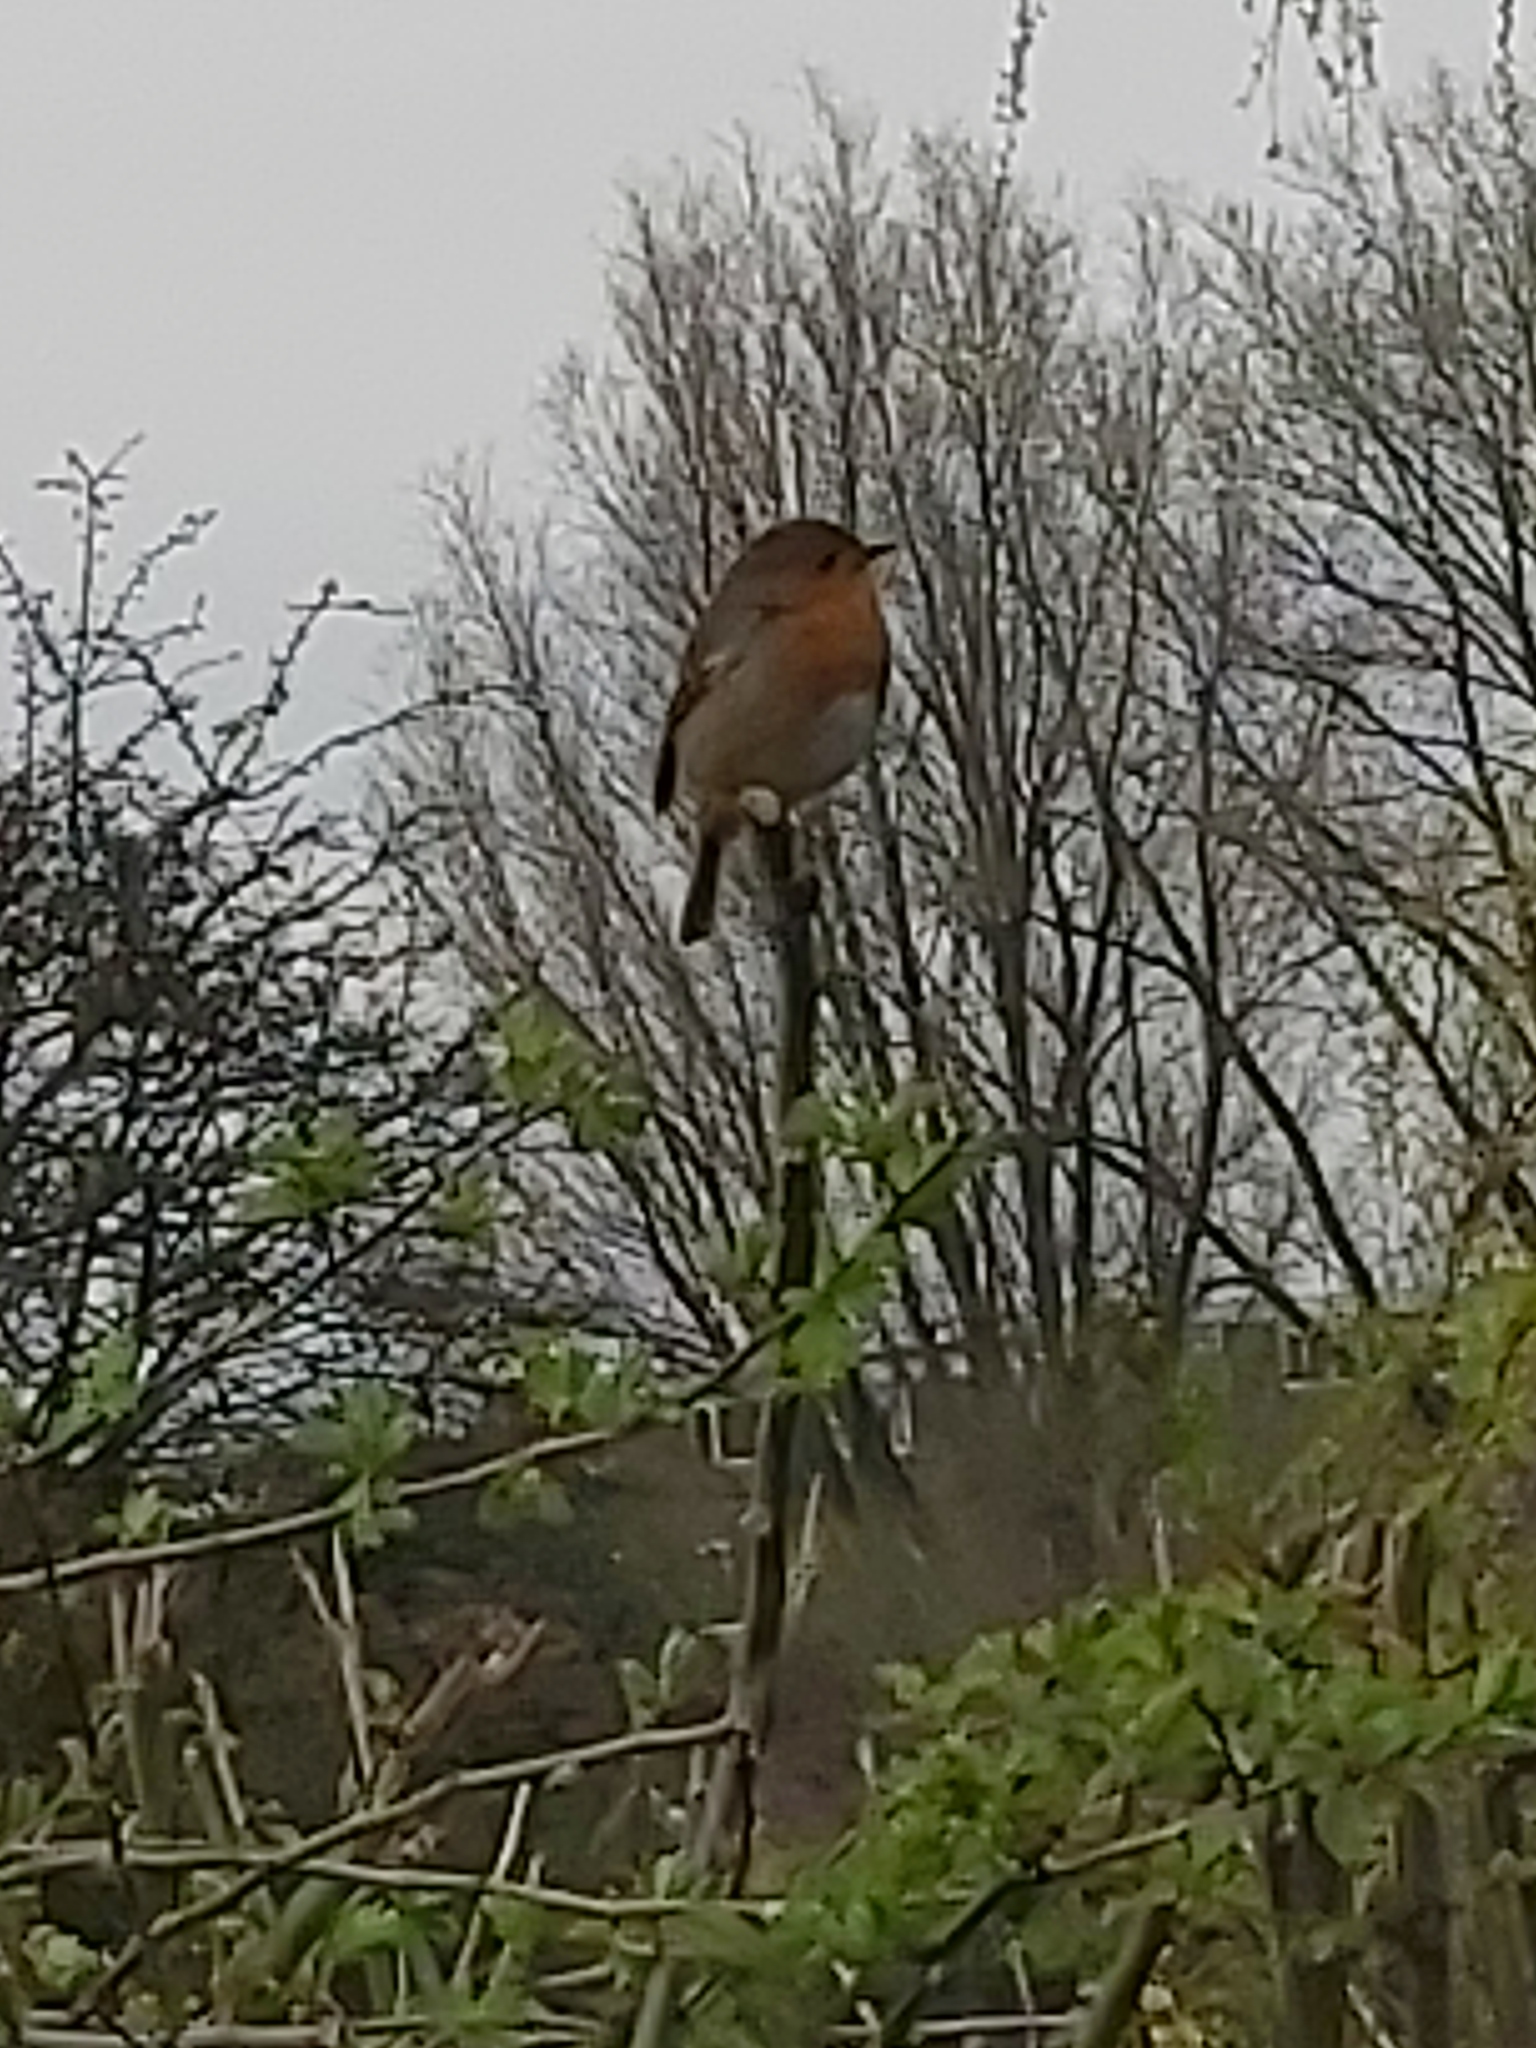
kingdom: Animalia
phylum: Chordata
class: Aves
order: Passeriformes
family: Muscicapidae
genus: Erithacus
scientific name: Erithacus rubecula
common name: European robin
